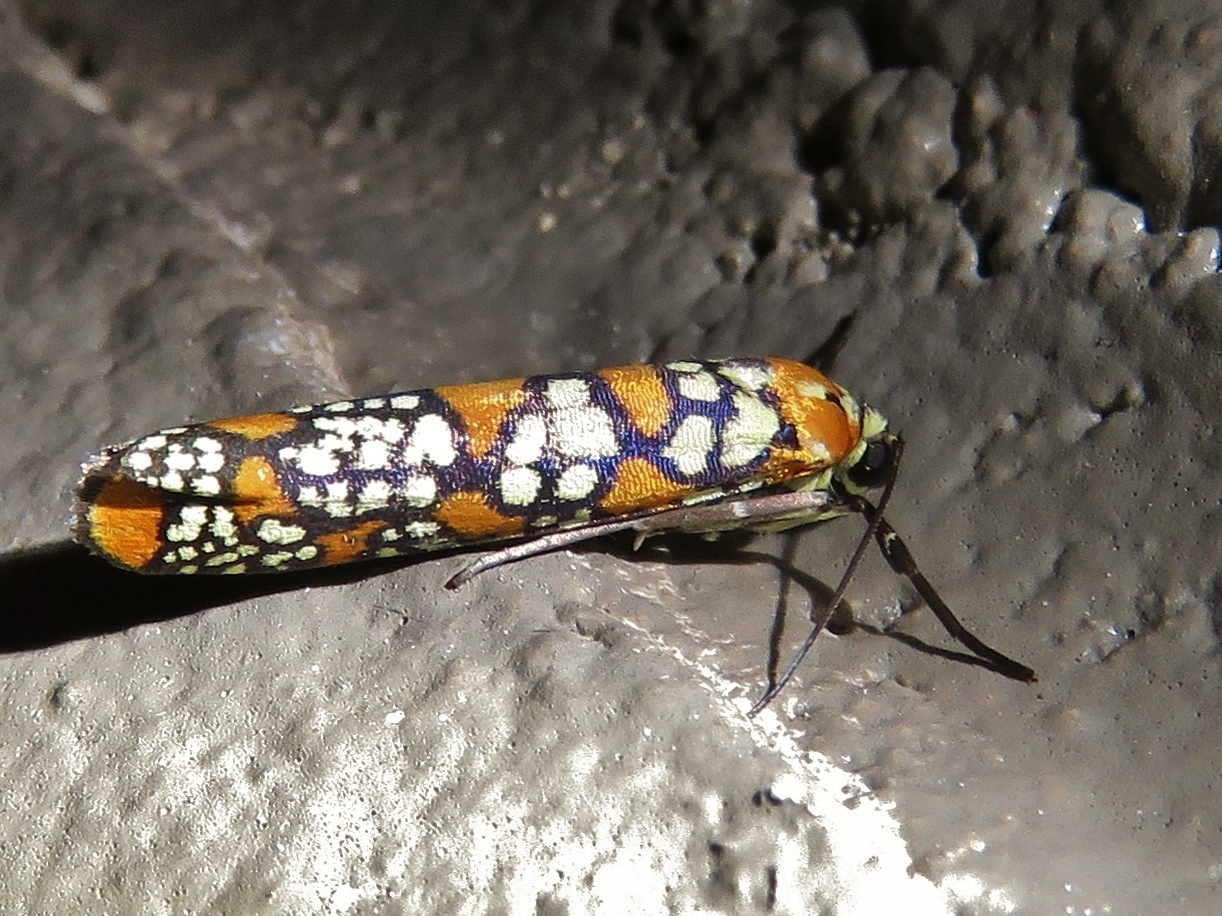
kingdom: Animalia
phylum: Arthropoda
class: Insecta
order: Lepidoptera
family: Attevidae
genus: Atteva
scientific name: Atteva punctella
